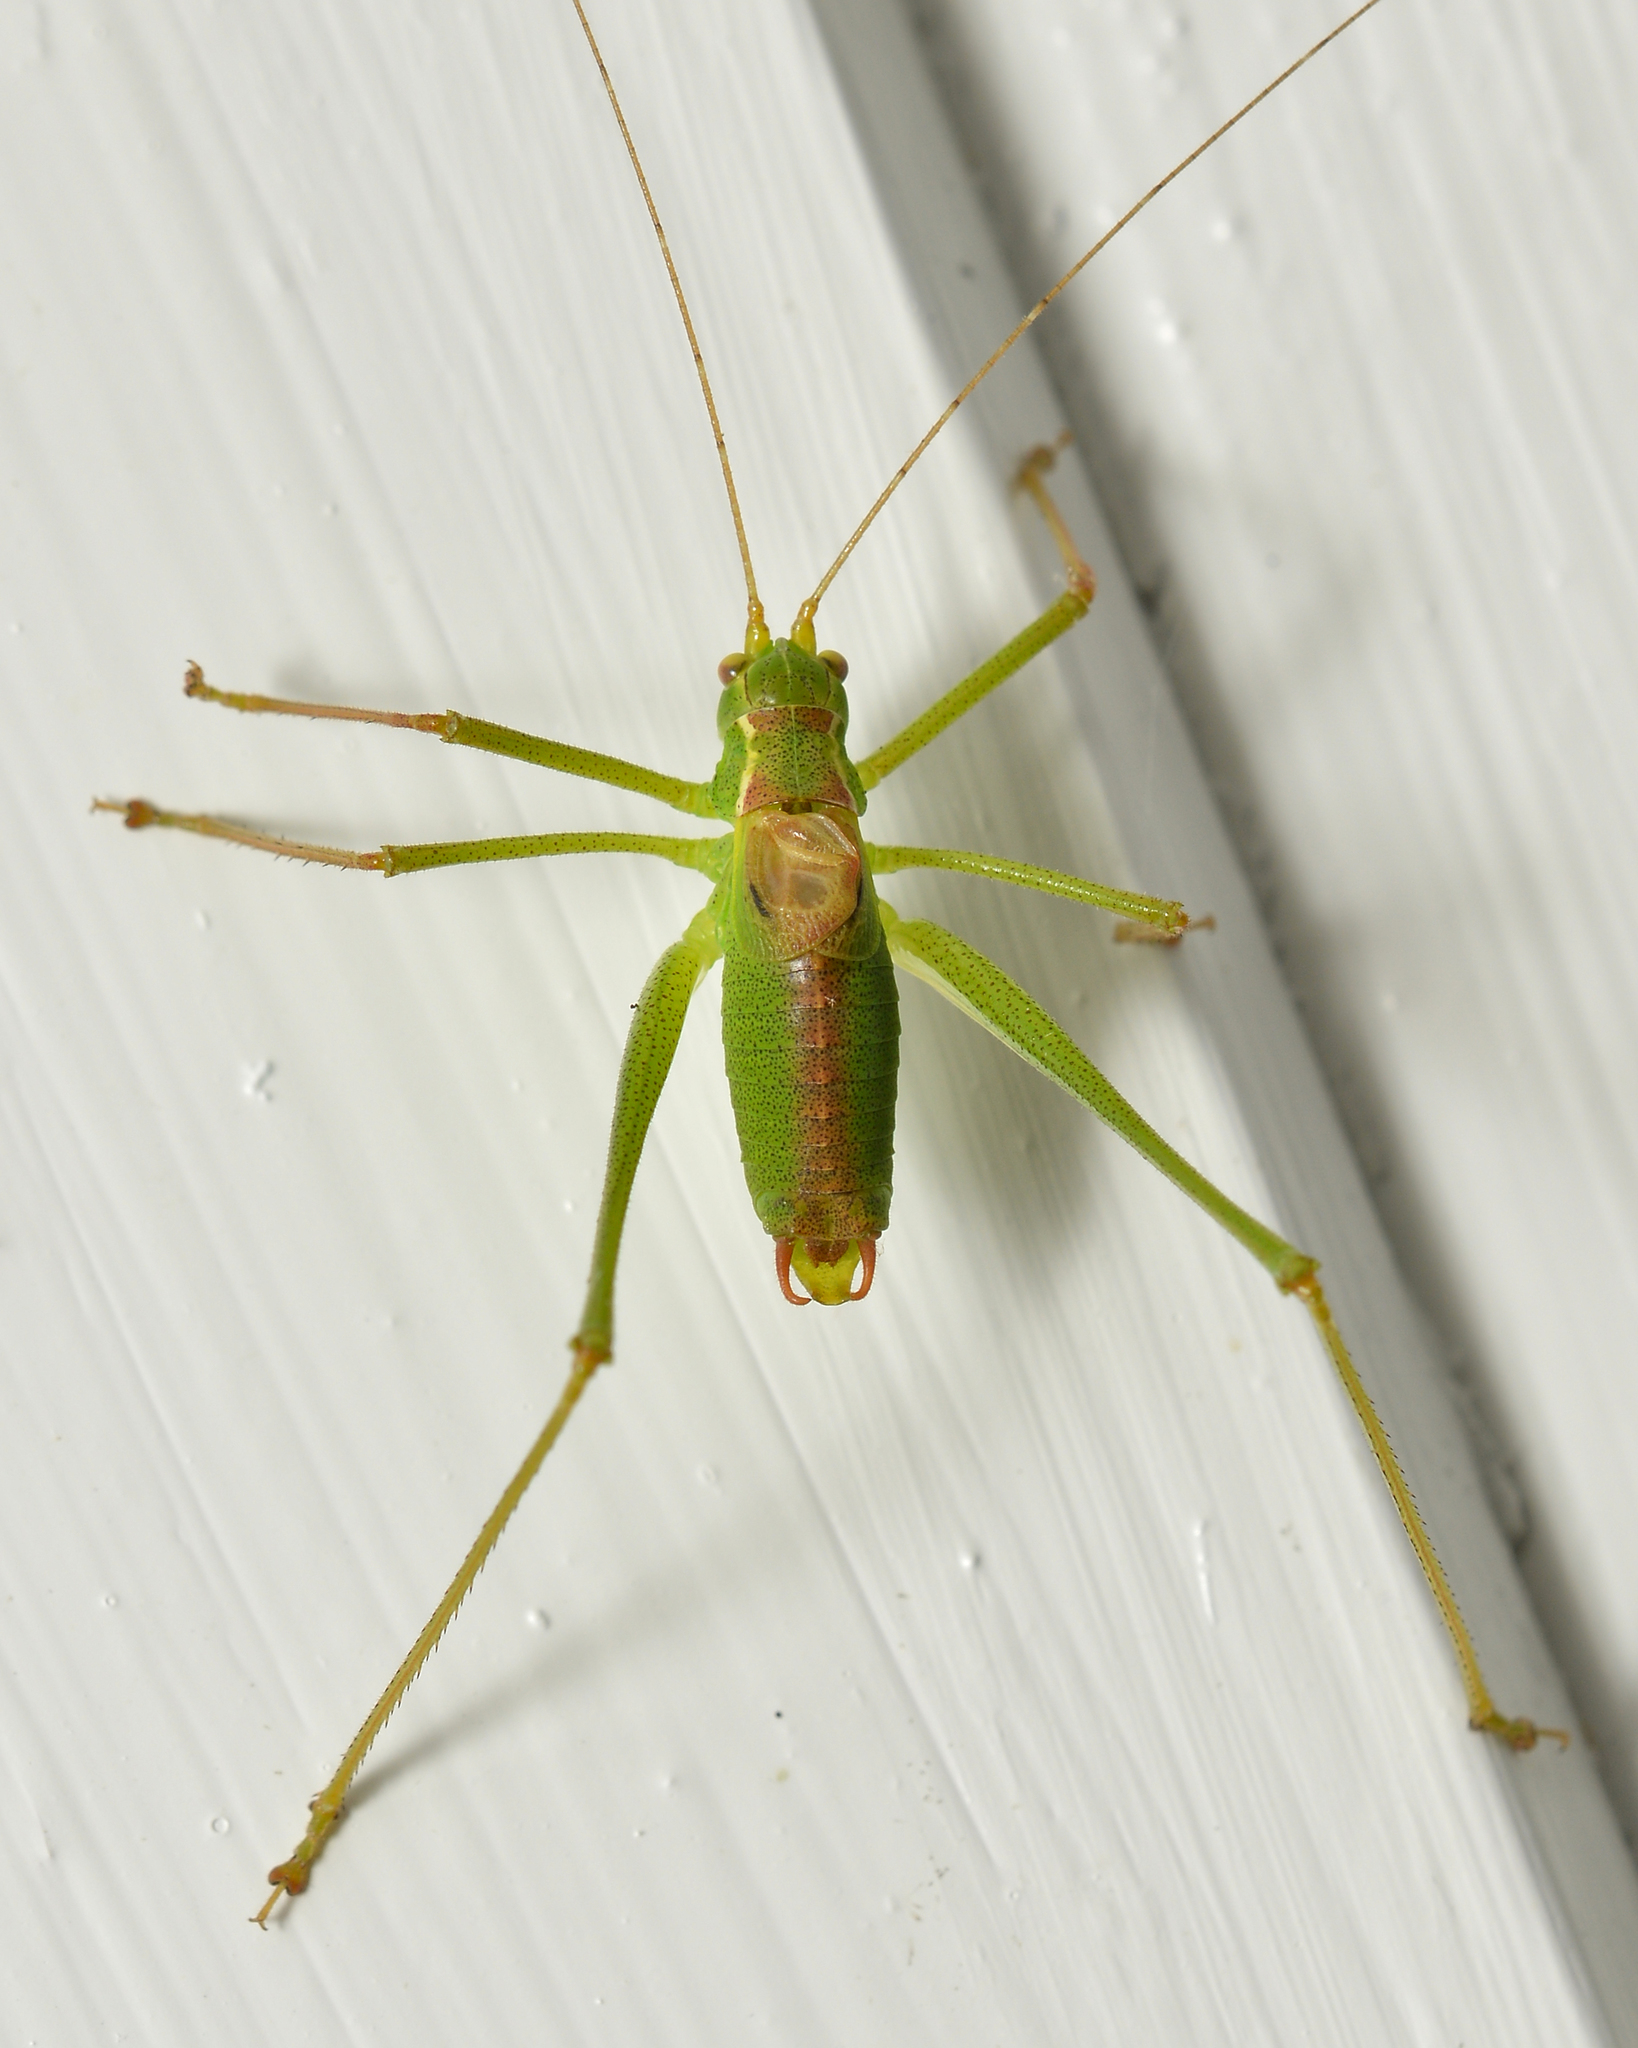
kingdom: Animalia
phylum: Arthropoda
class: Insecta
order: Orthoptera
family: Tettigoniidae
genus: Leptophyes
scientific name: Leptophyes punctatissima
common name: Speckled bush-cricket
